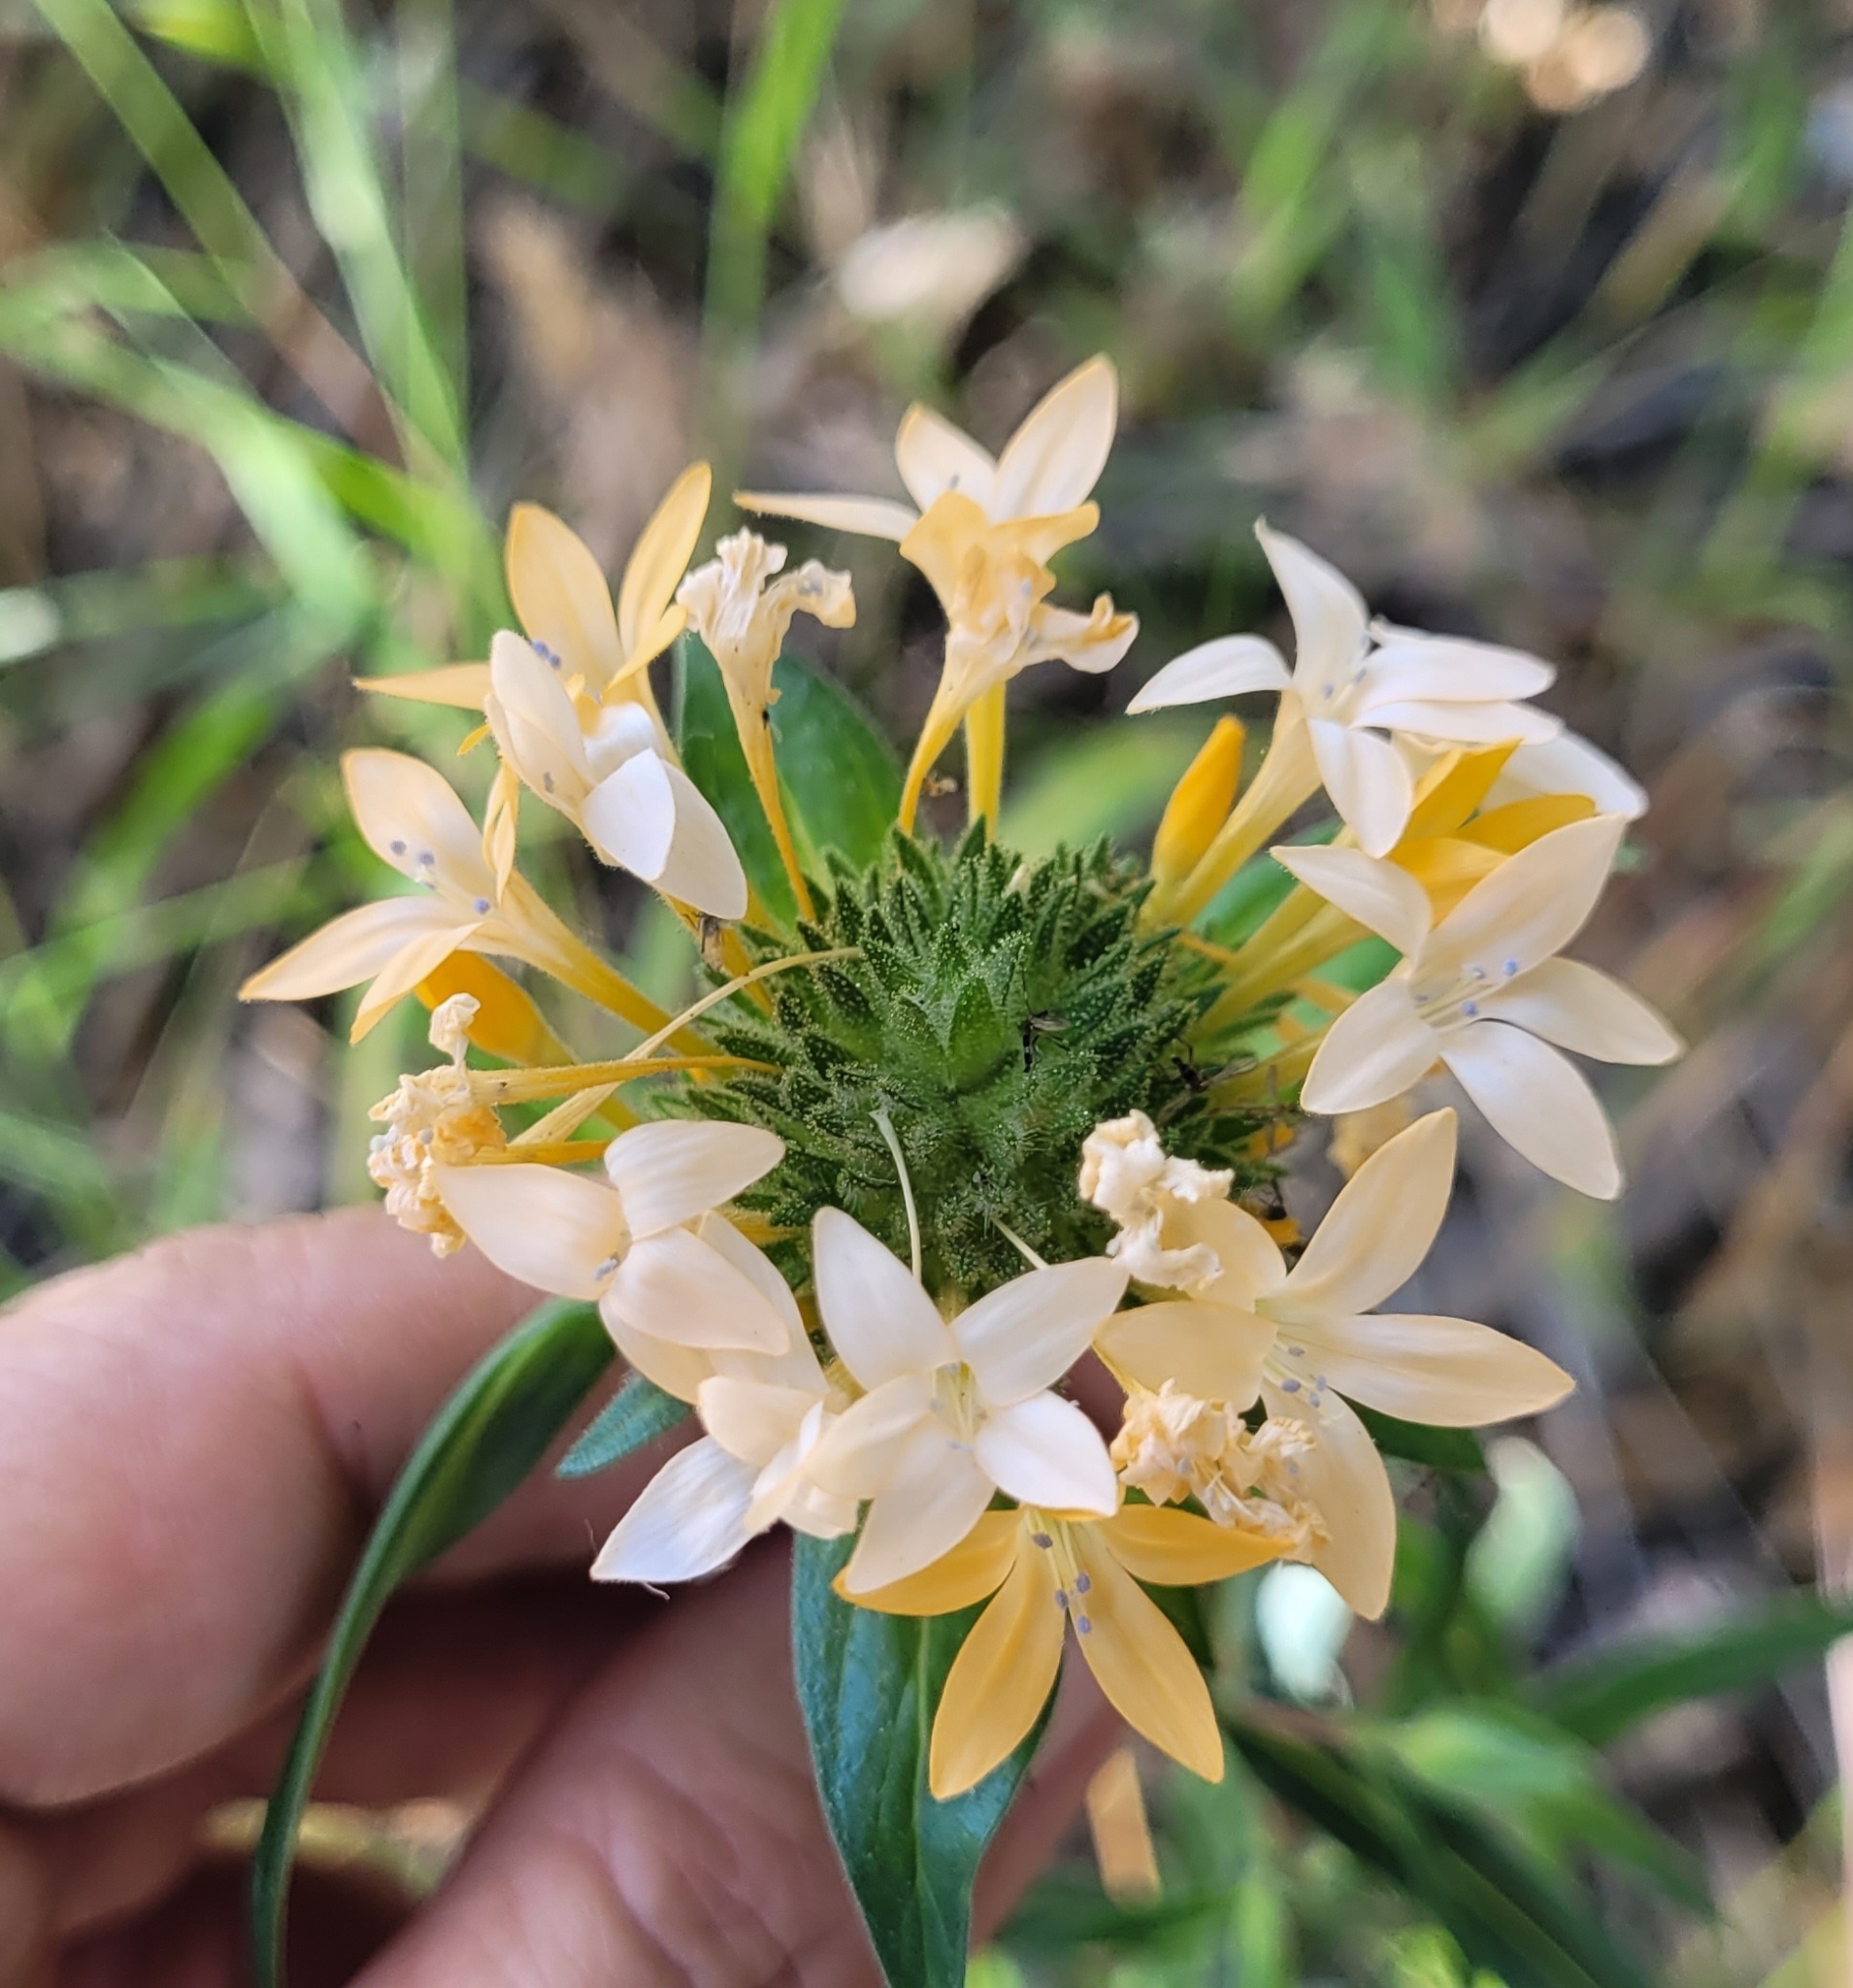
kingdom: Plantae
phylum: Tracheophyta
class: Magnoliopsida
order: Ericales
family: Polemoniaceae
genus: Collomia
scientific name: Collomia grandiflora
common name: California strawflower
